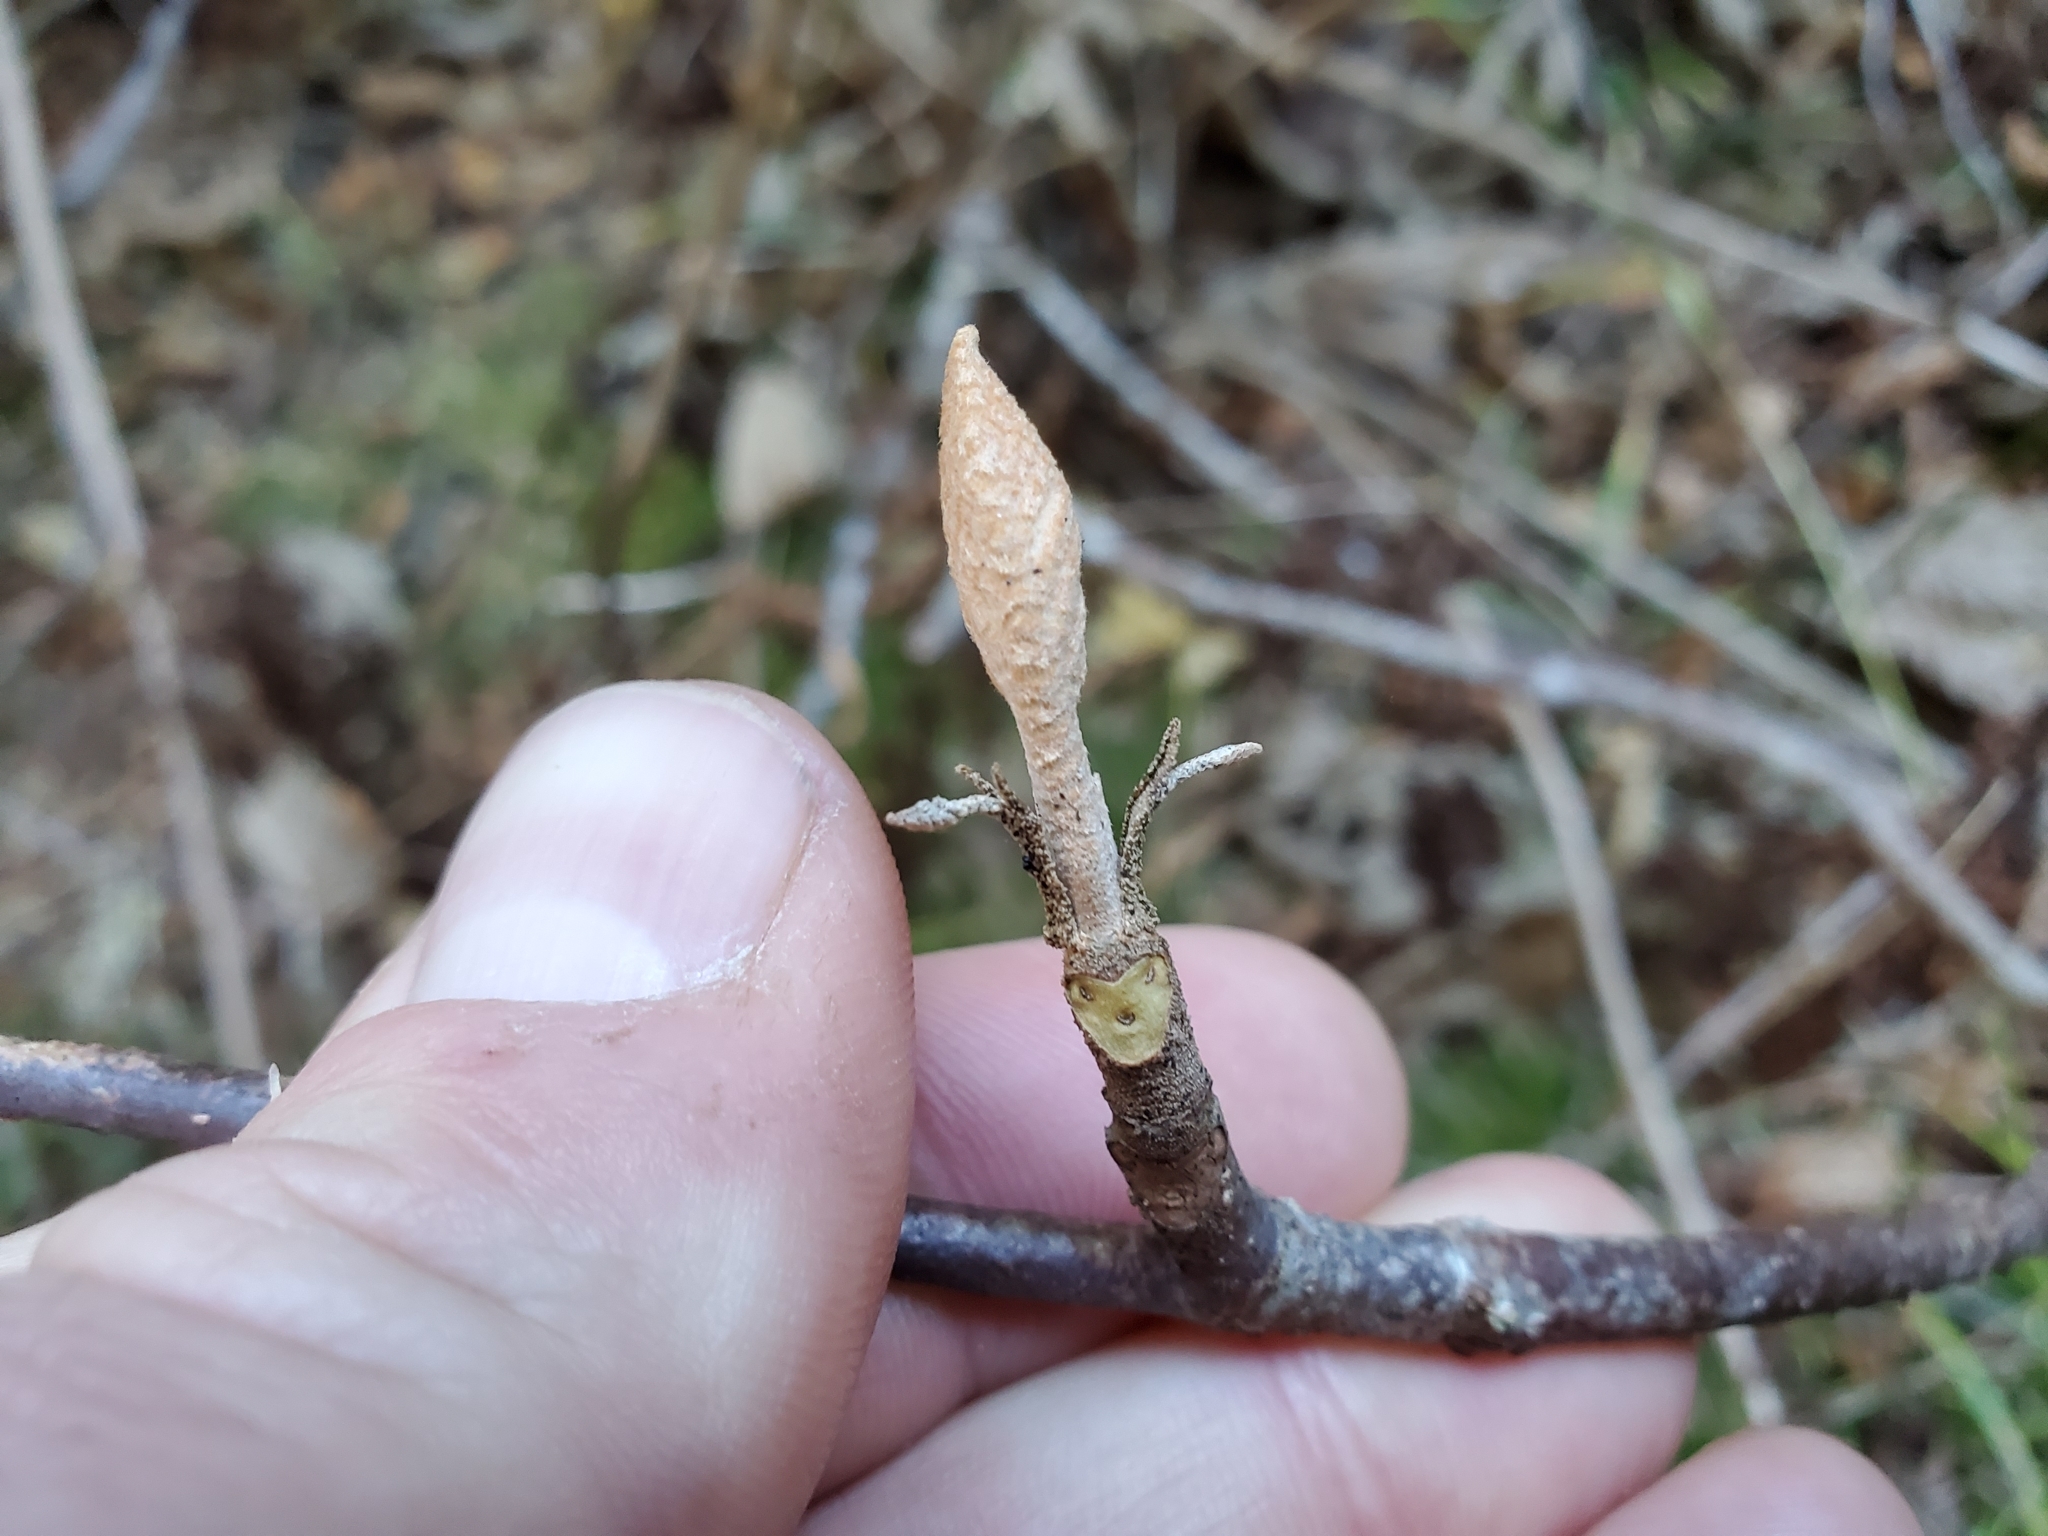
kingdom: Plantae
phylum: Tracheophyta
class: Magnoliopsida
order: Dipsacales
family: Viburnaceae
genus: Viburnum
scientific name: Viburnum lantanoides
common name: Hobblebush
